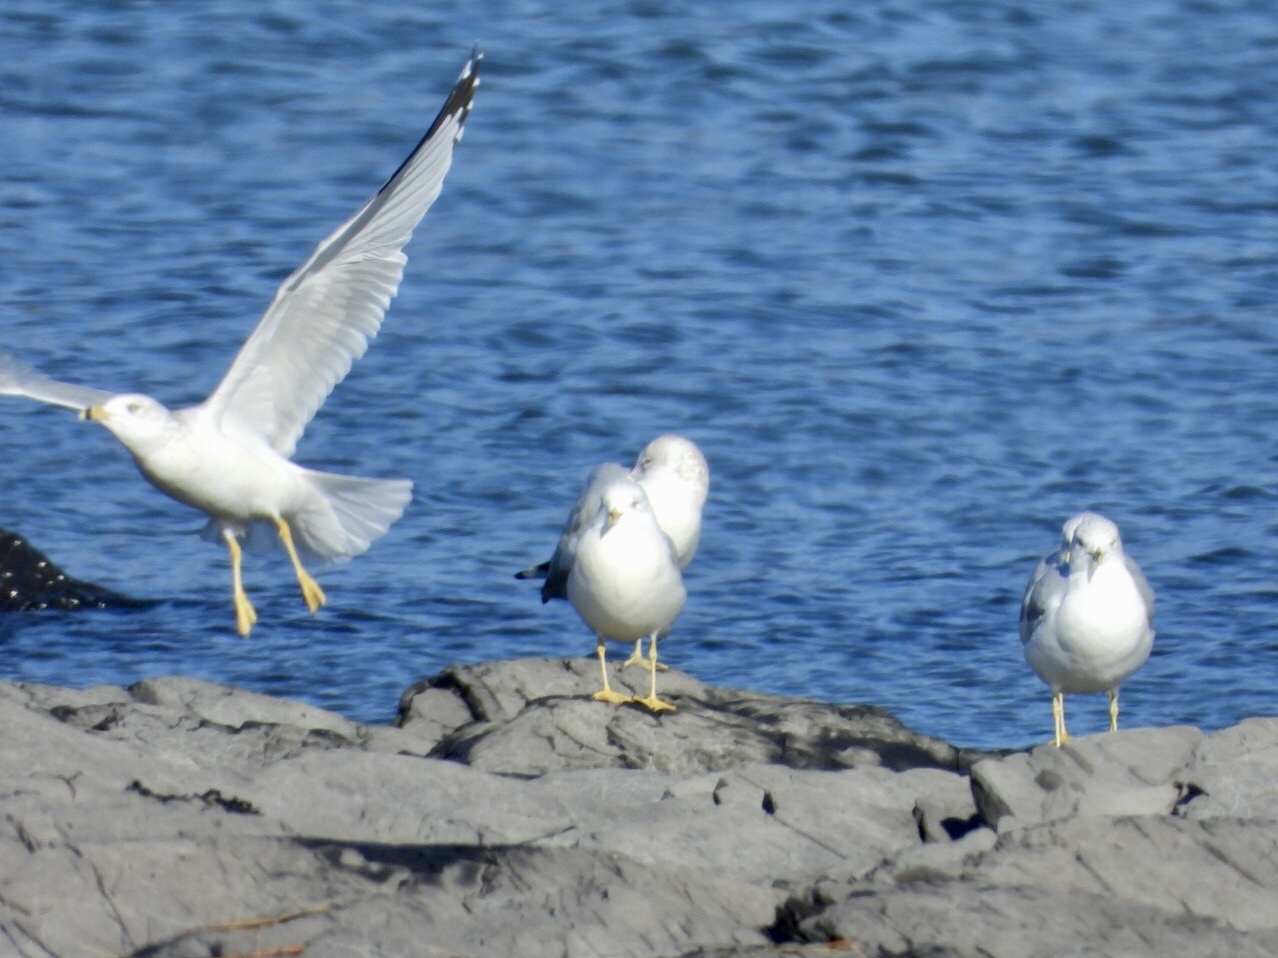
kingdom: Animalia
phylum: Chordata
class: Aves
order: Charadriiformes
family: Laridae
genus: Larus
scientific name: Larus delawarensis
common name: Ring-billed gull
